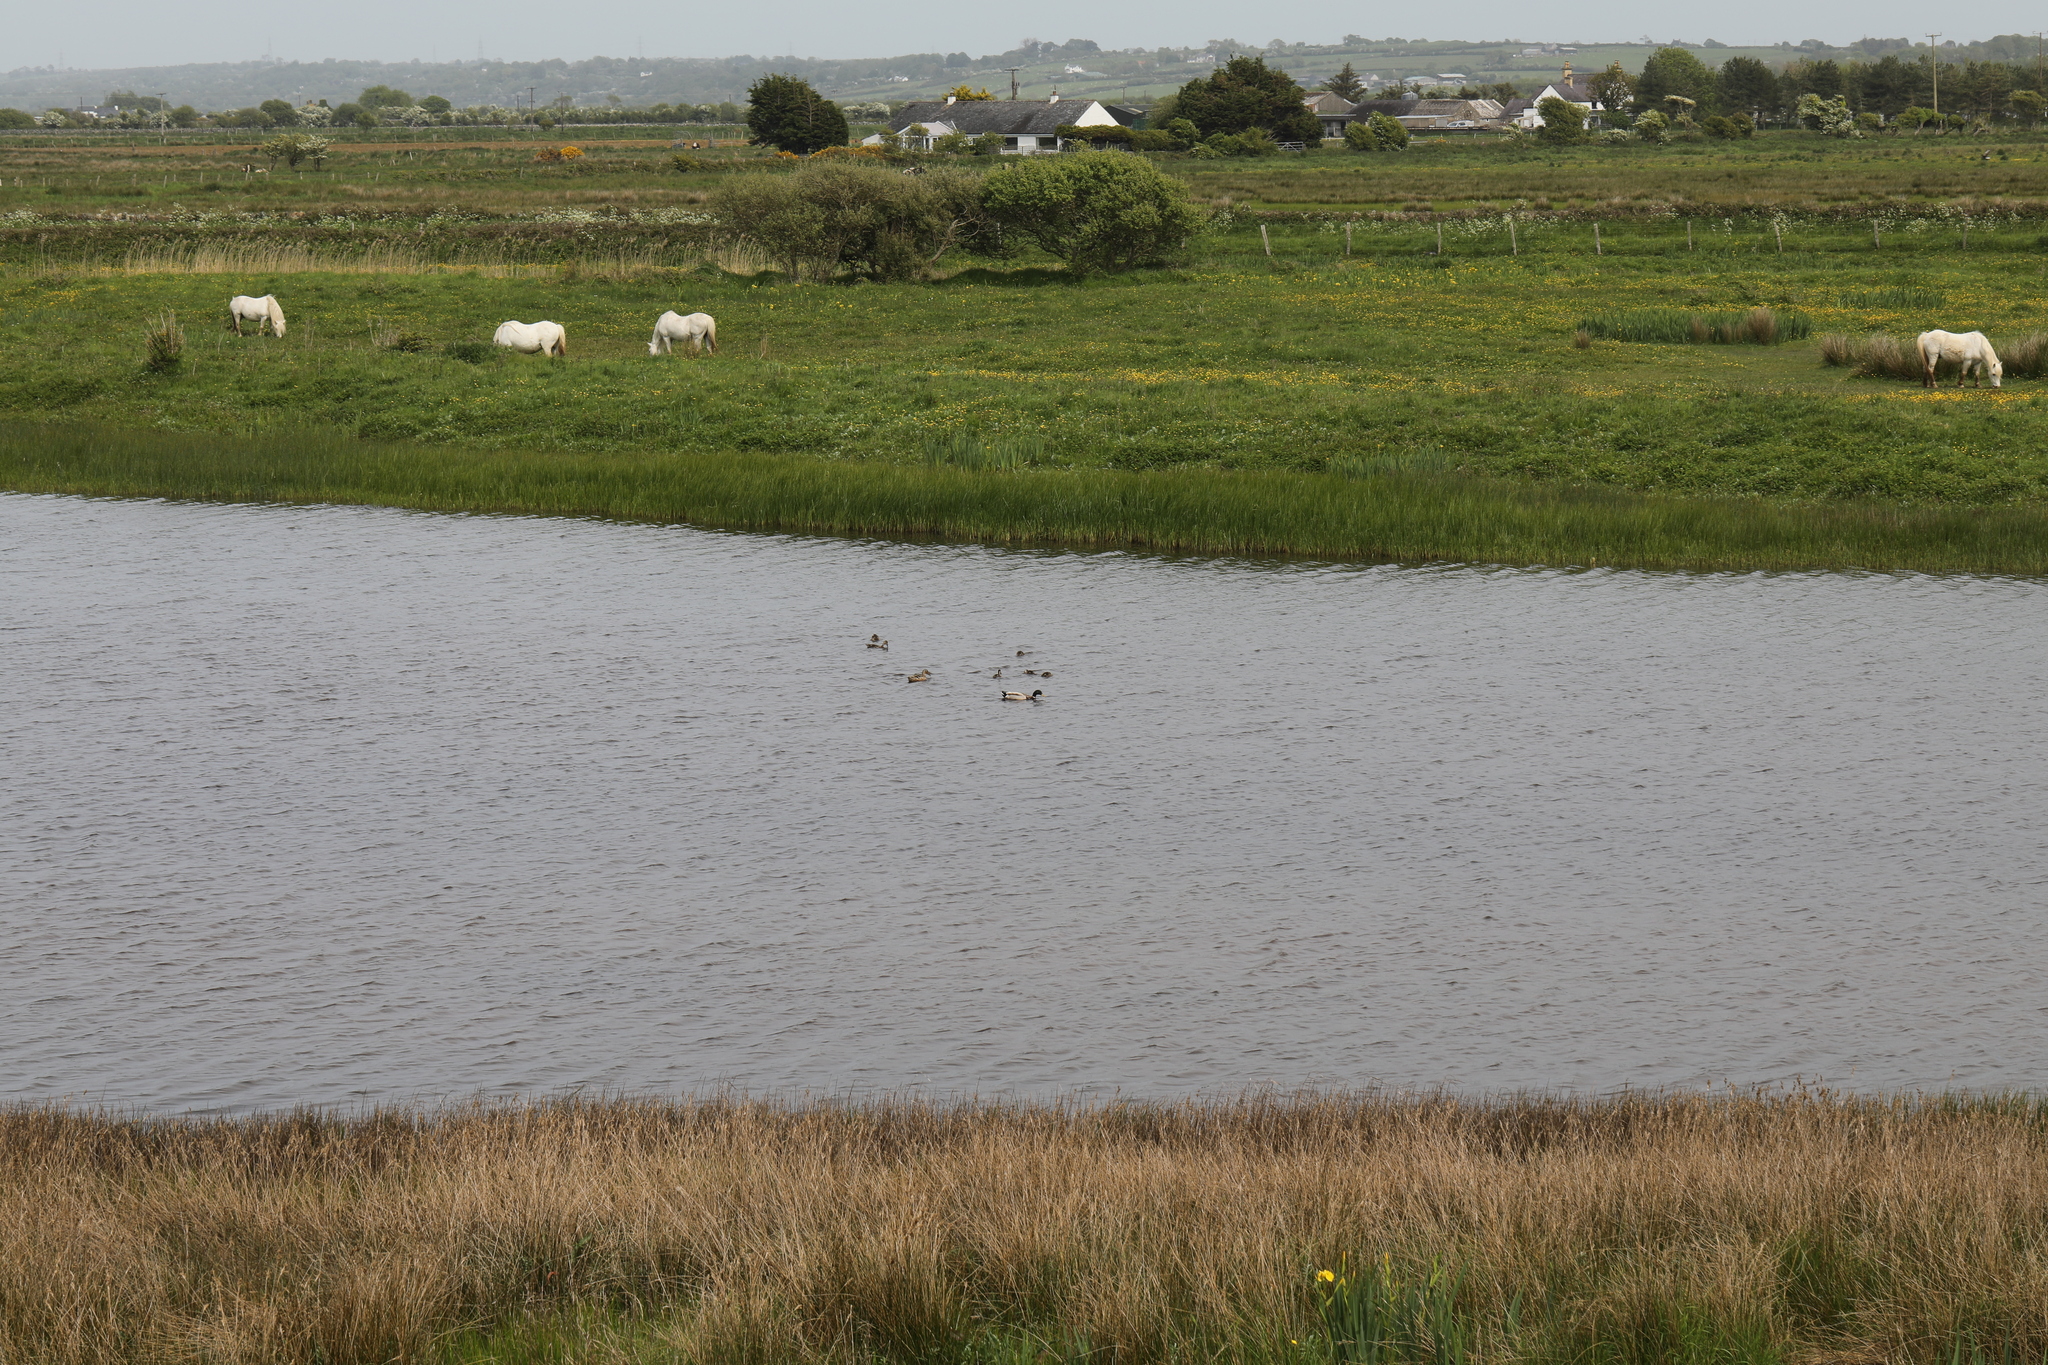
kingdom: Animalia
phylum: Chordata
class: Aves
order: Anseriformes
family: Anatidae
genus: Anas
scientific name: Anas platyrhynchos
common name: Mallard
